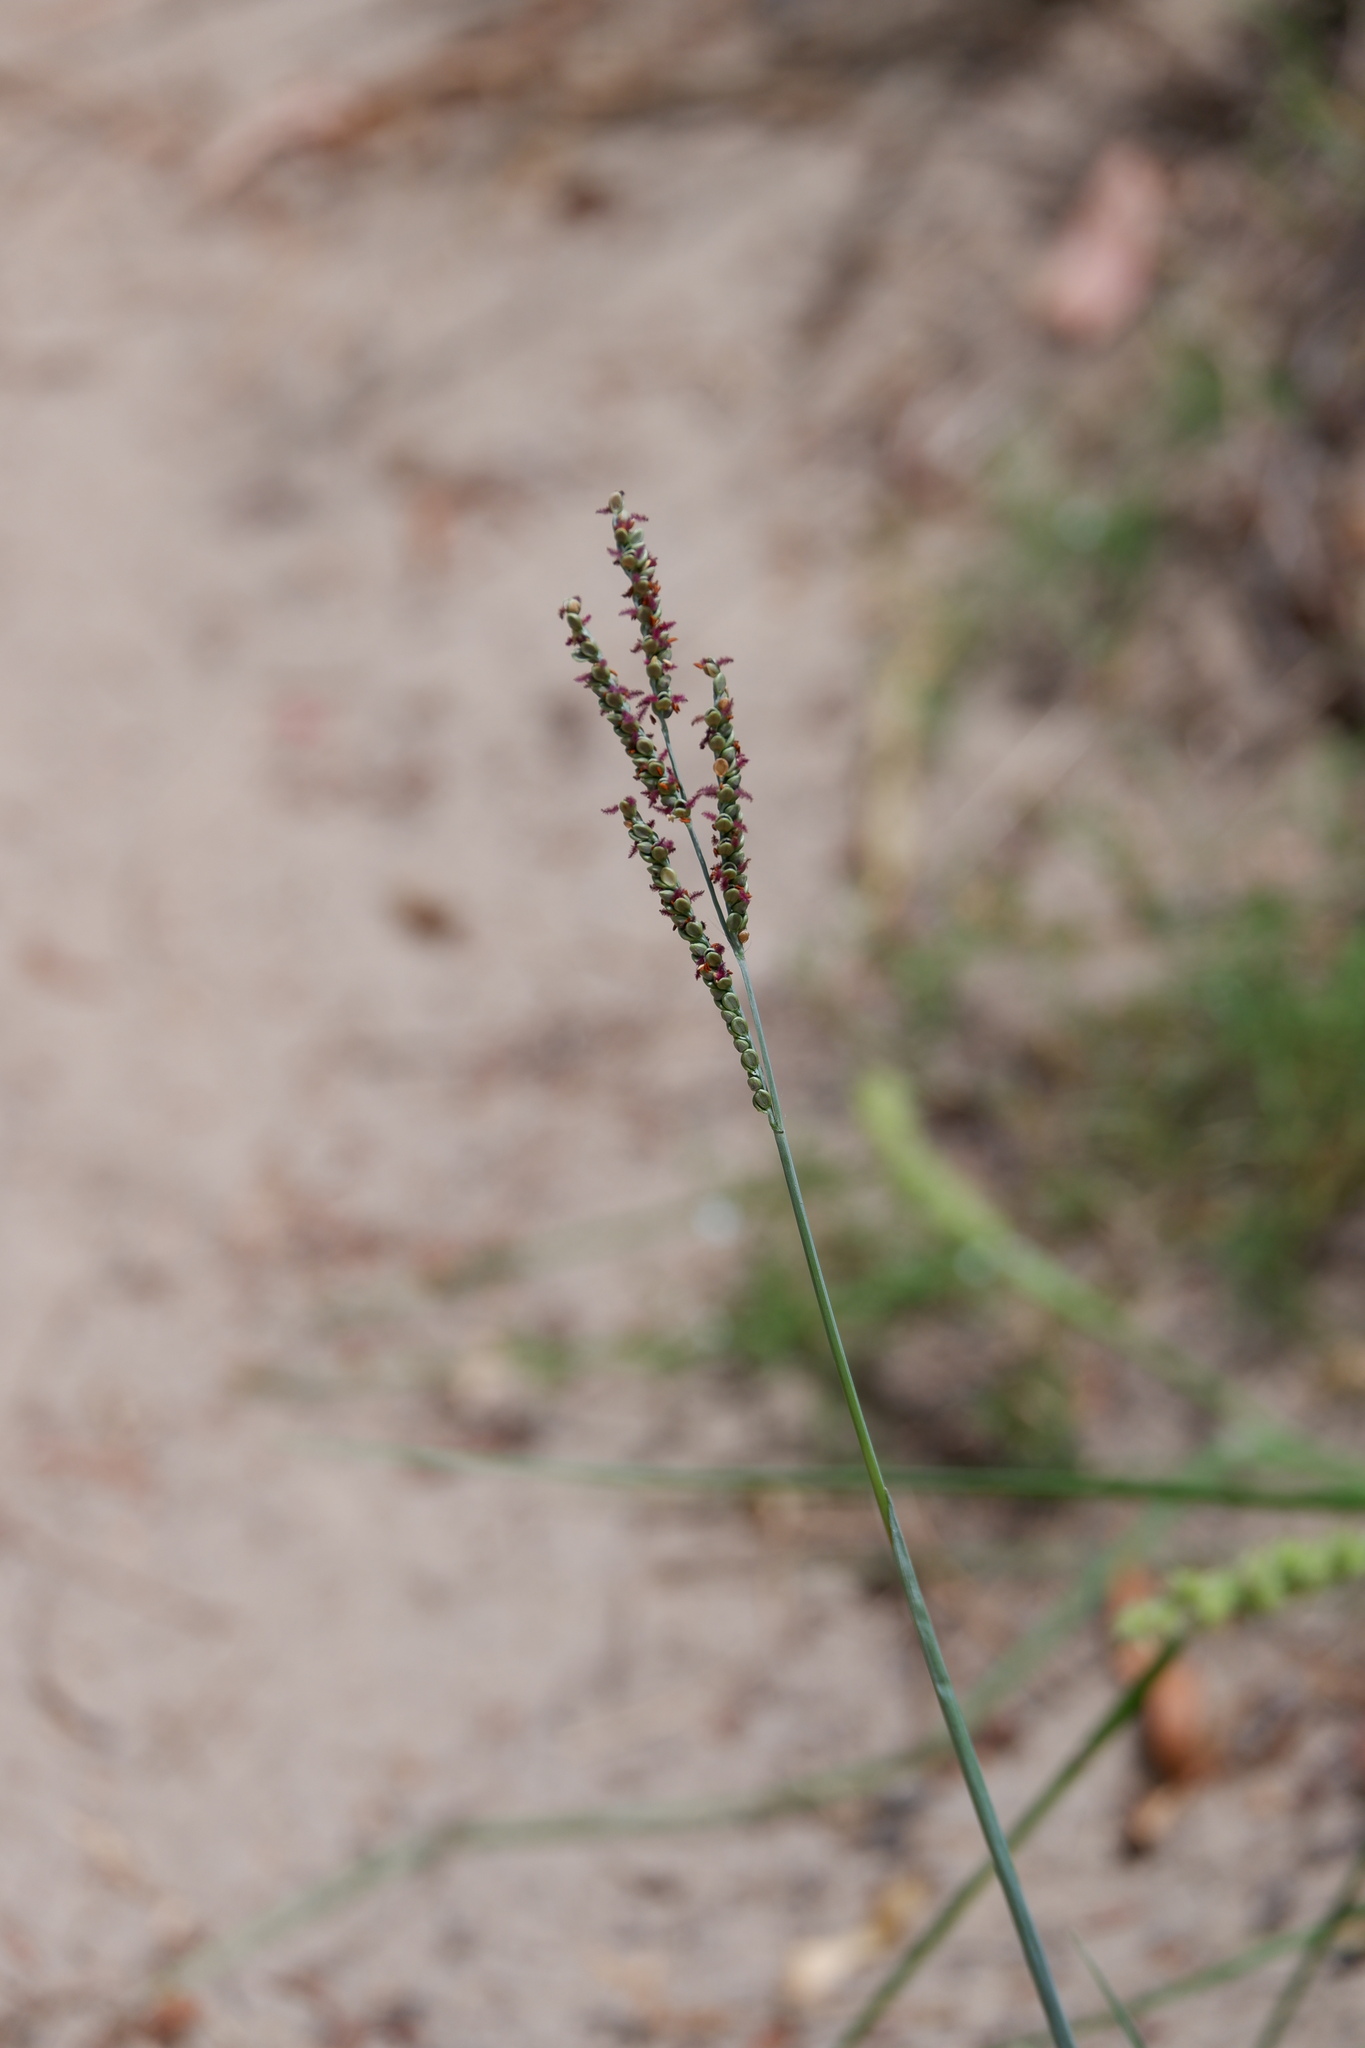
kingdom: Plantae
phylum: Tracheophyta
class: Liliopsida
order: Poales
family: Poaceae
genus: Paspalum
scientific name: Paspalum plicatulum
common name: Top paspalum
